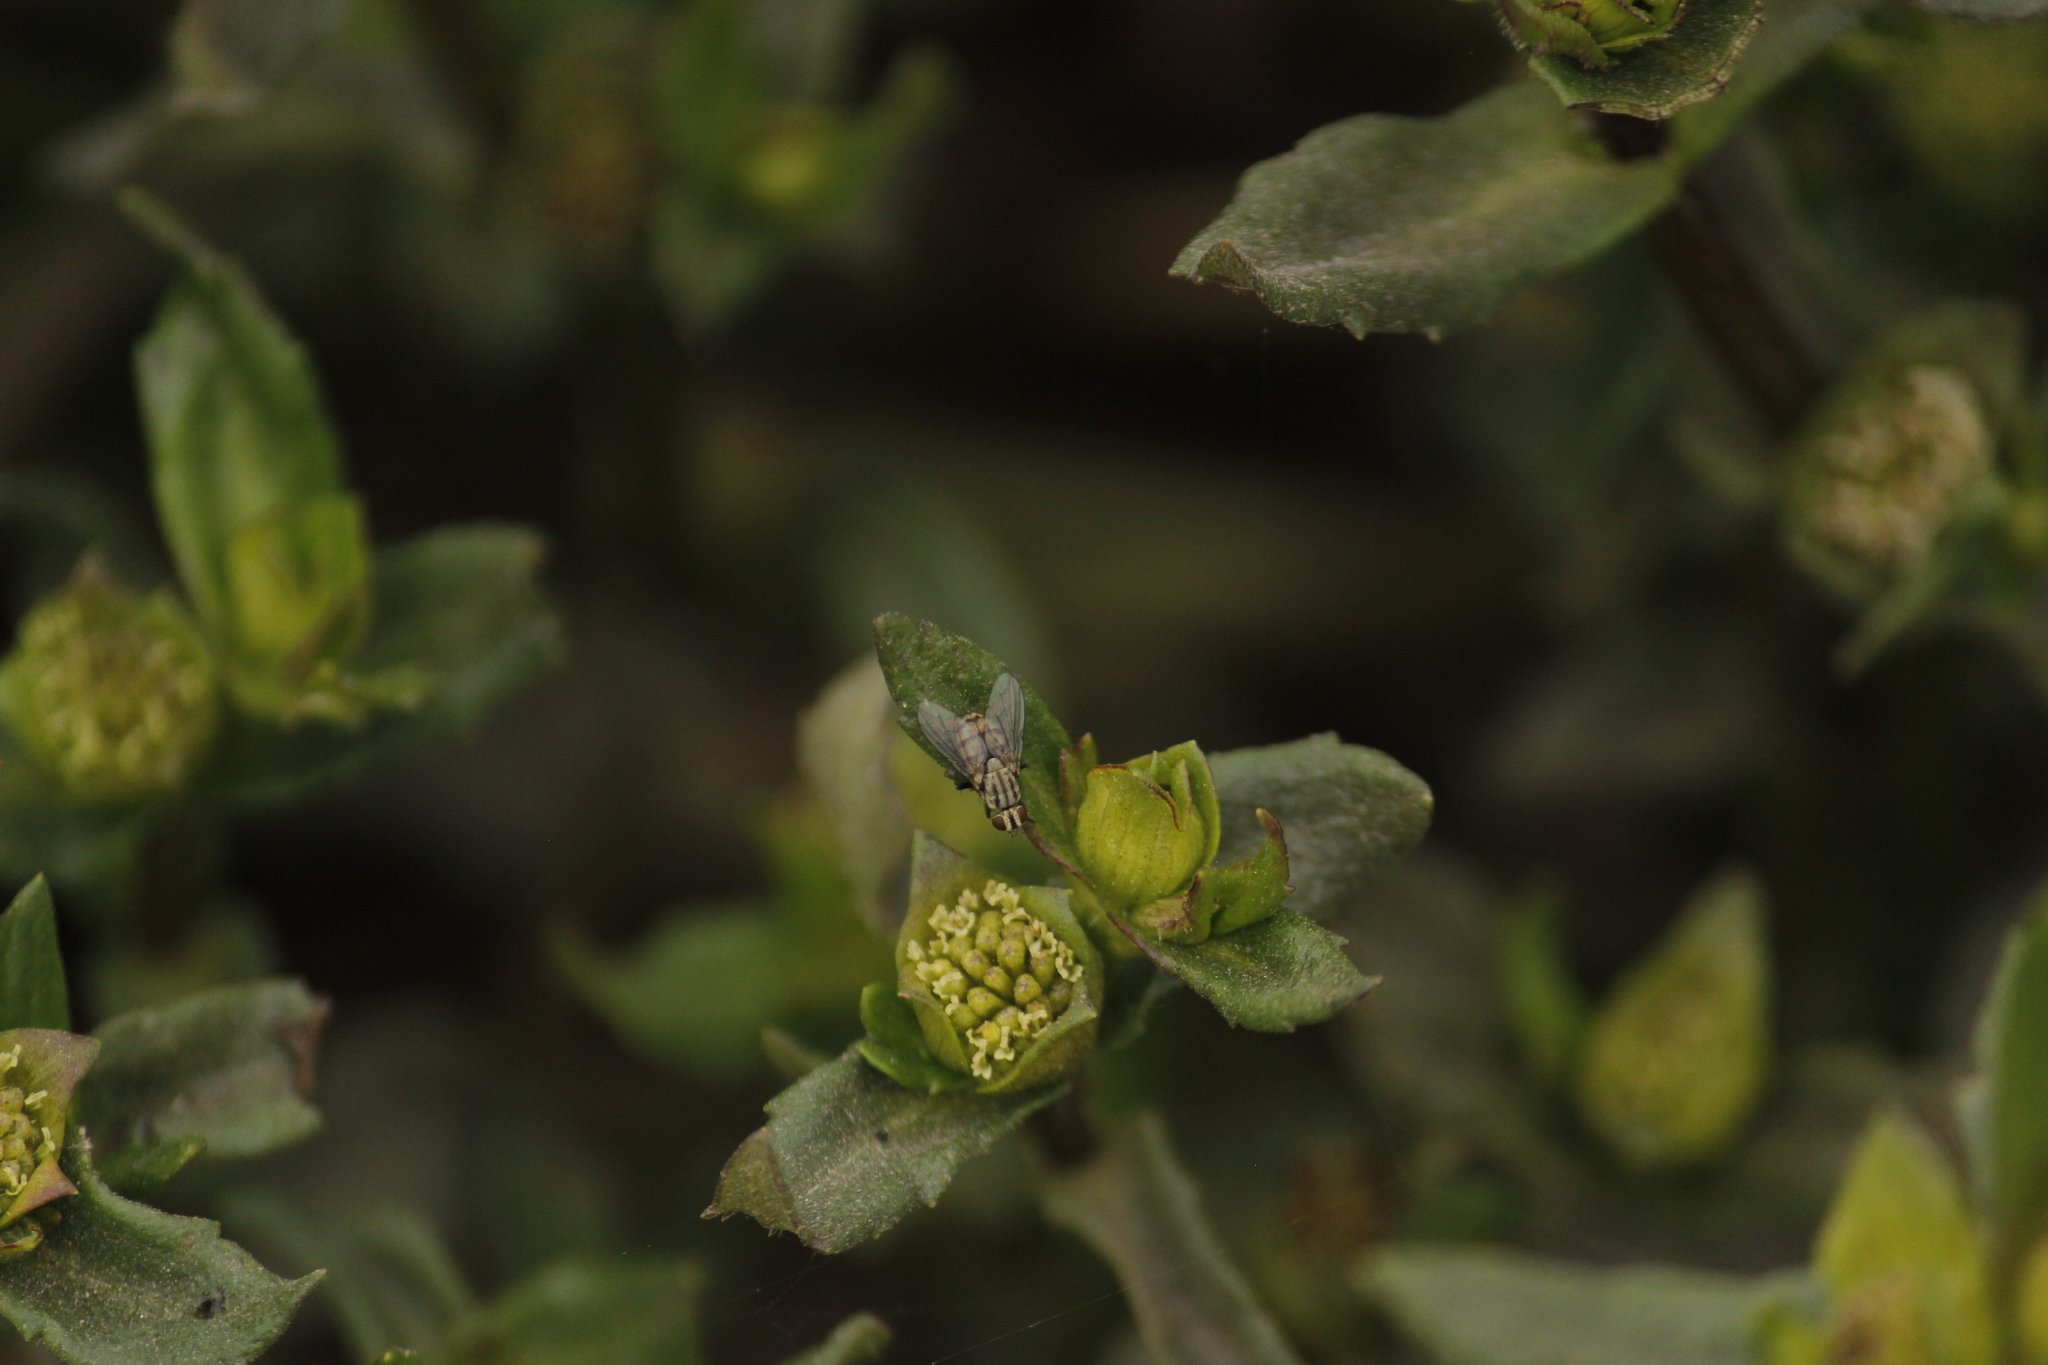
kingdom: Plantae
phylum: Tracheophyta
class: Magnoliopsida
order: Asterales
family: Asteraceae
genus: Enydra
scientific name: Enydra sessilifolia
